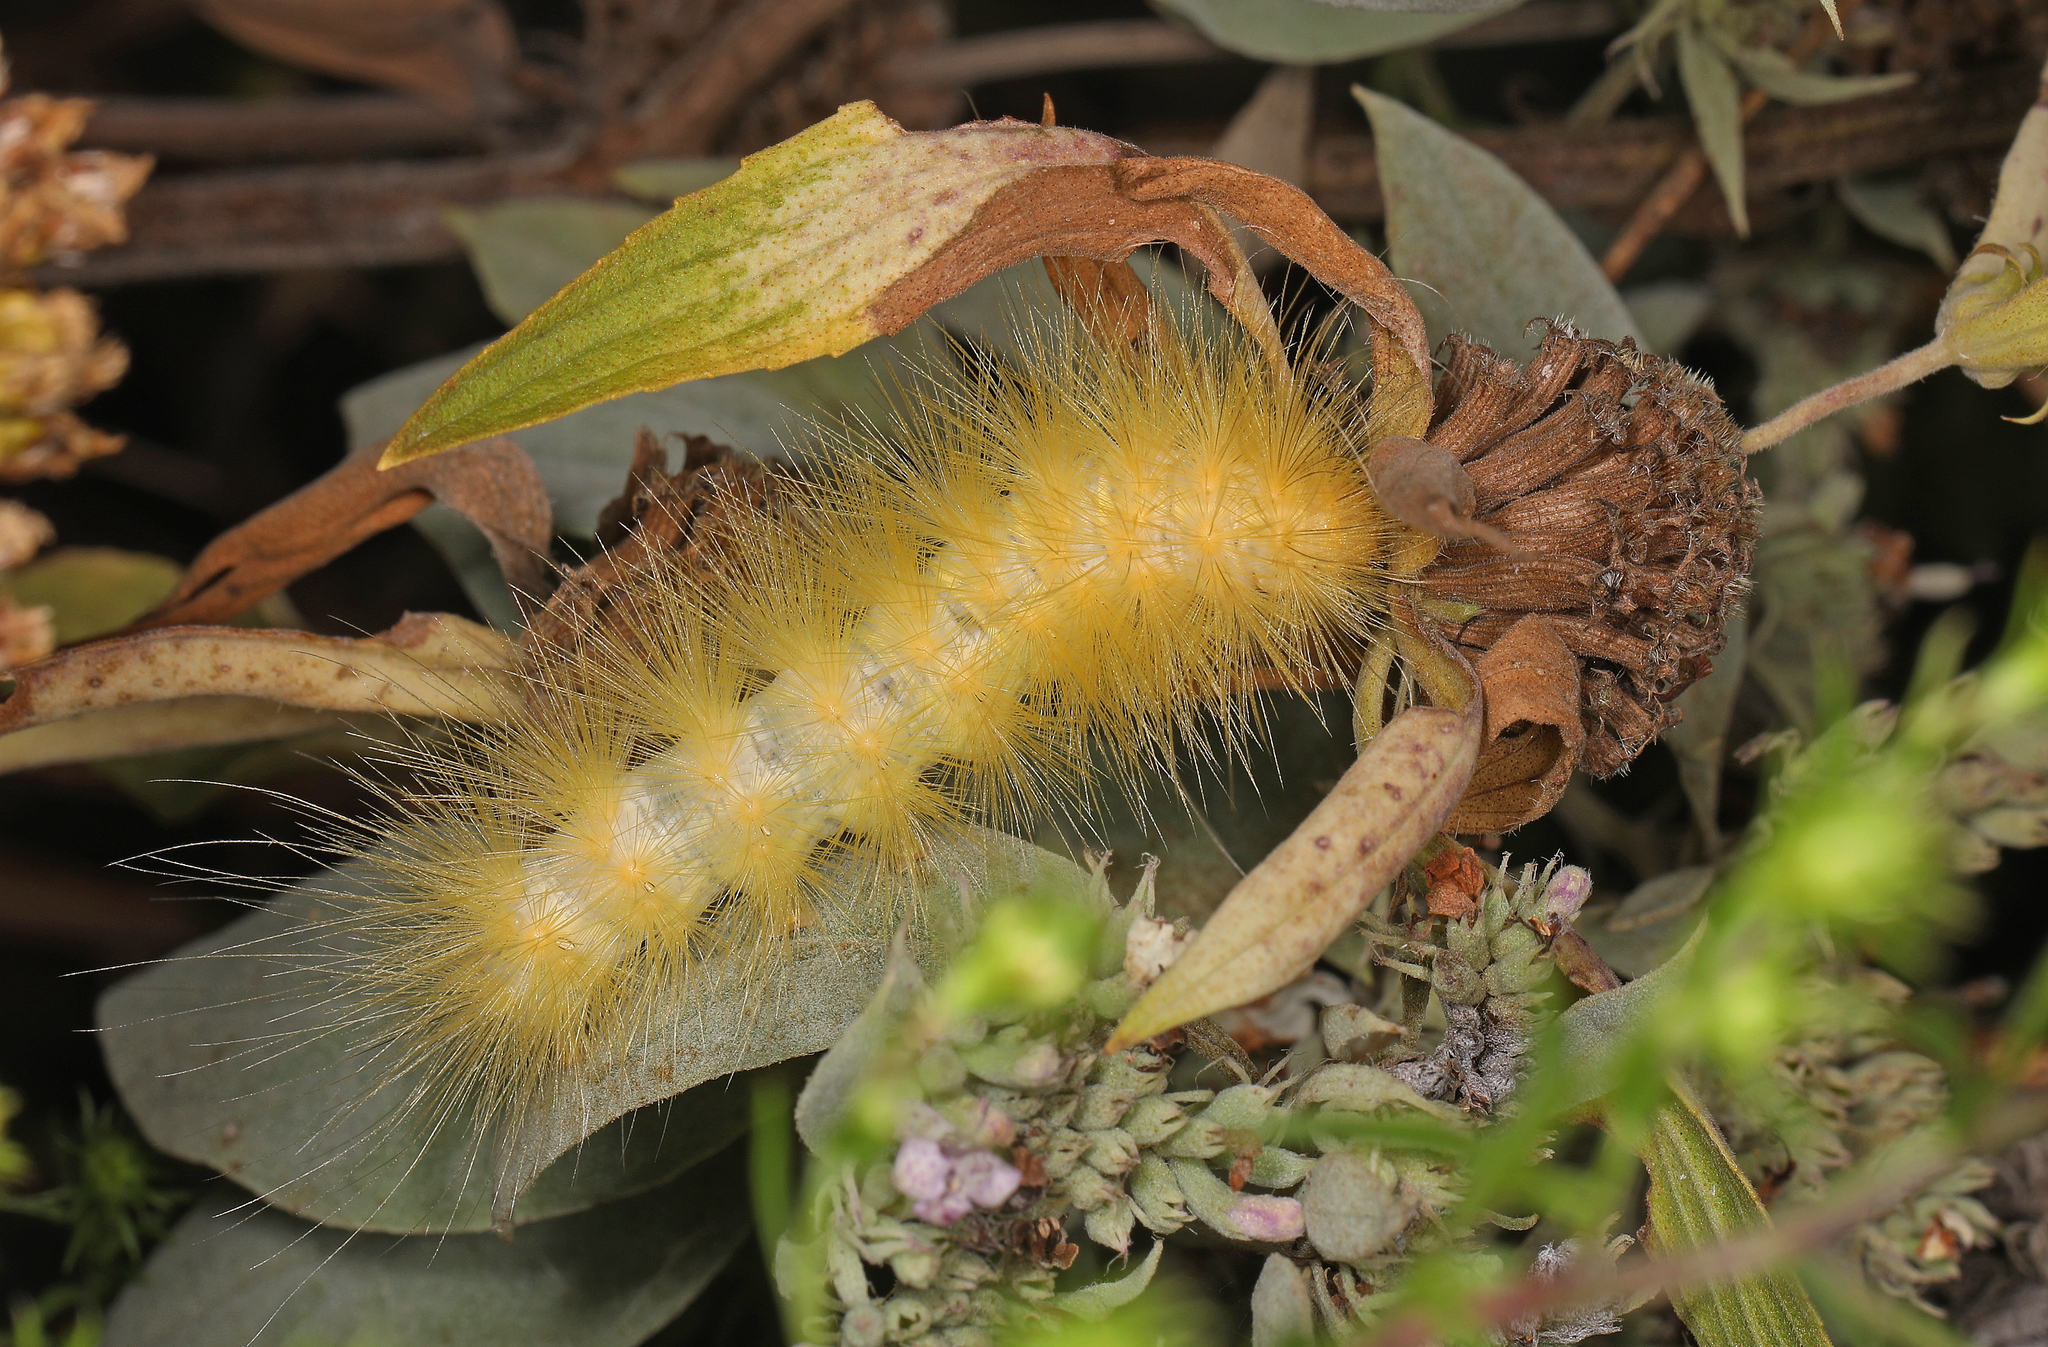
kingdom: Animalia
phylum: Arthropoda
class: Insecta
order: Lepidoptera
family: Erebidae
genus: Spilosoma
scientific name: Spilosoma virginica
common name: Virginia tiger moth
